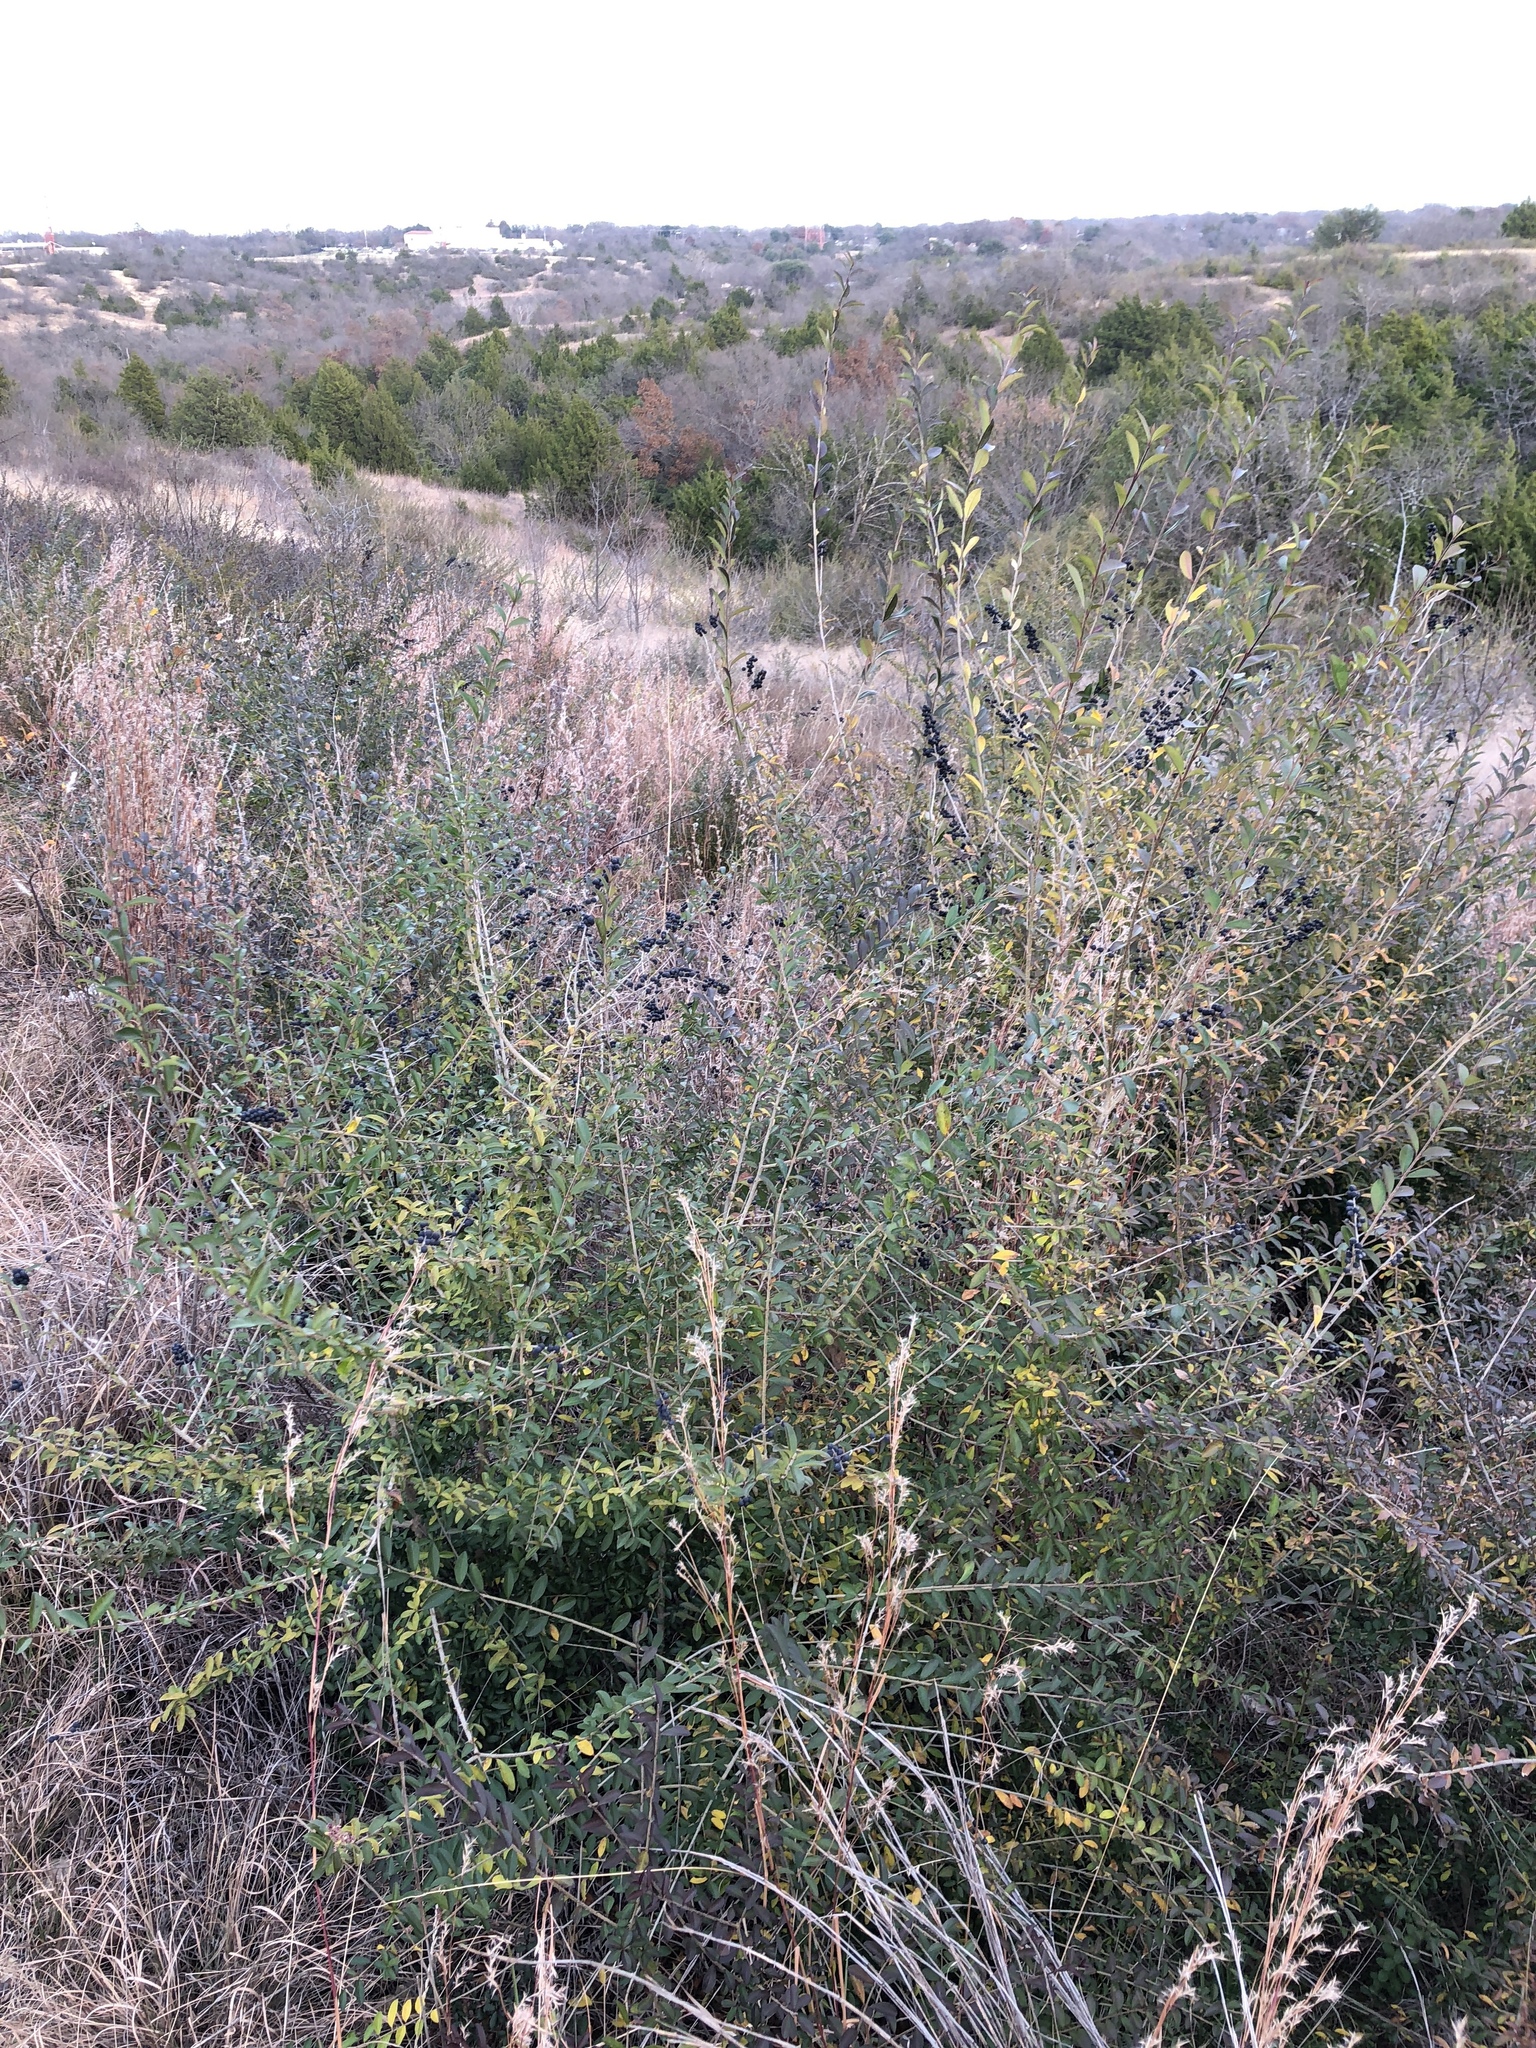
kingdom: Plantae
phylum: Tracheophyta
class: Magnoliopsida
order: Lamiales
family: Oleaceae
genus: Ligustrum
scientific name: Ligustrum quihoui
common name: Waxyleaf privet
